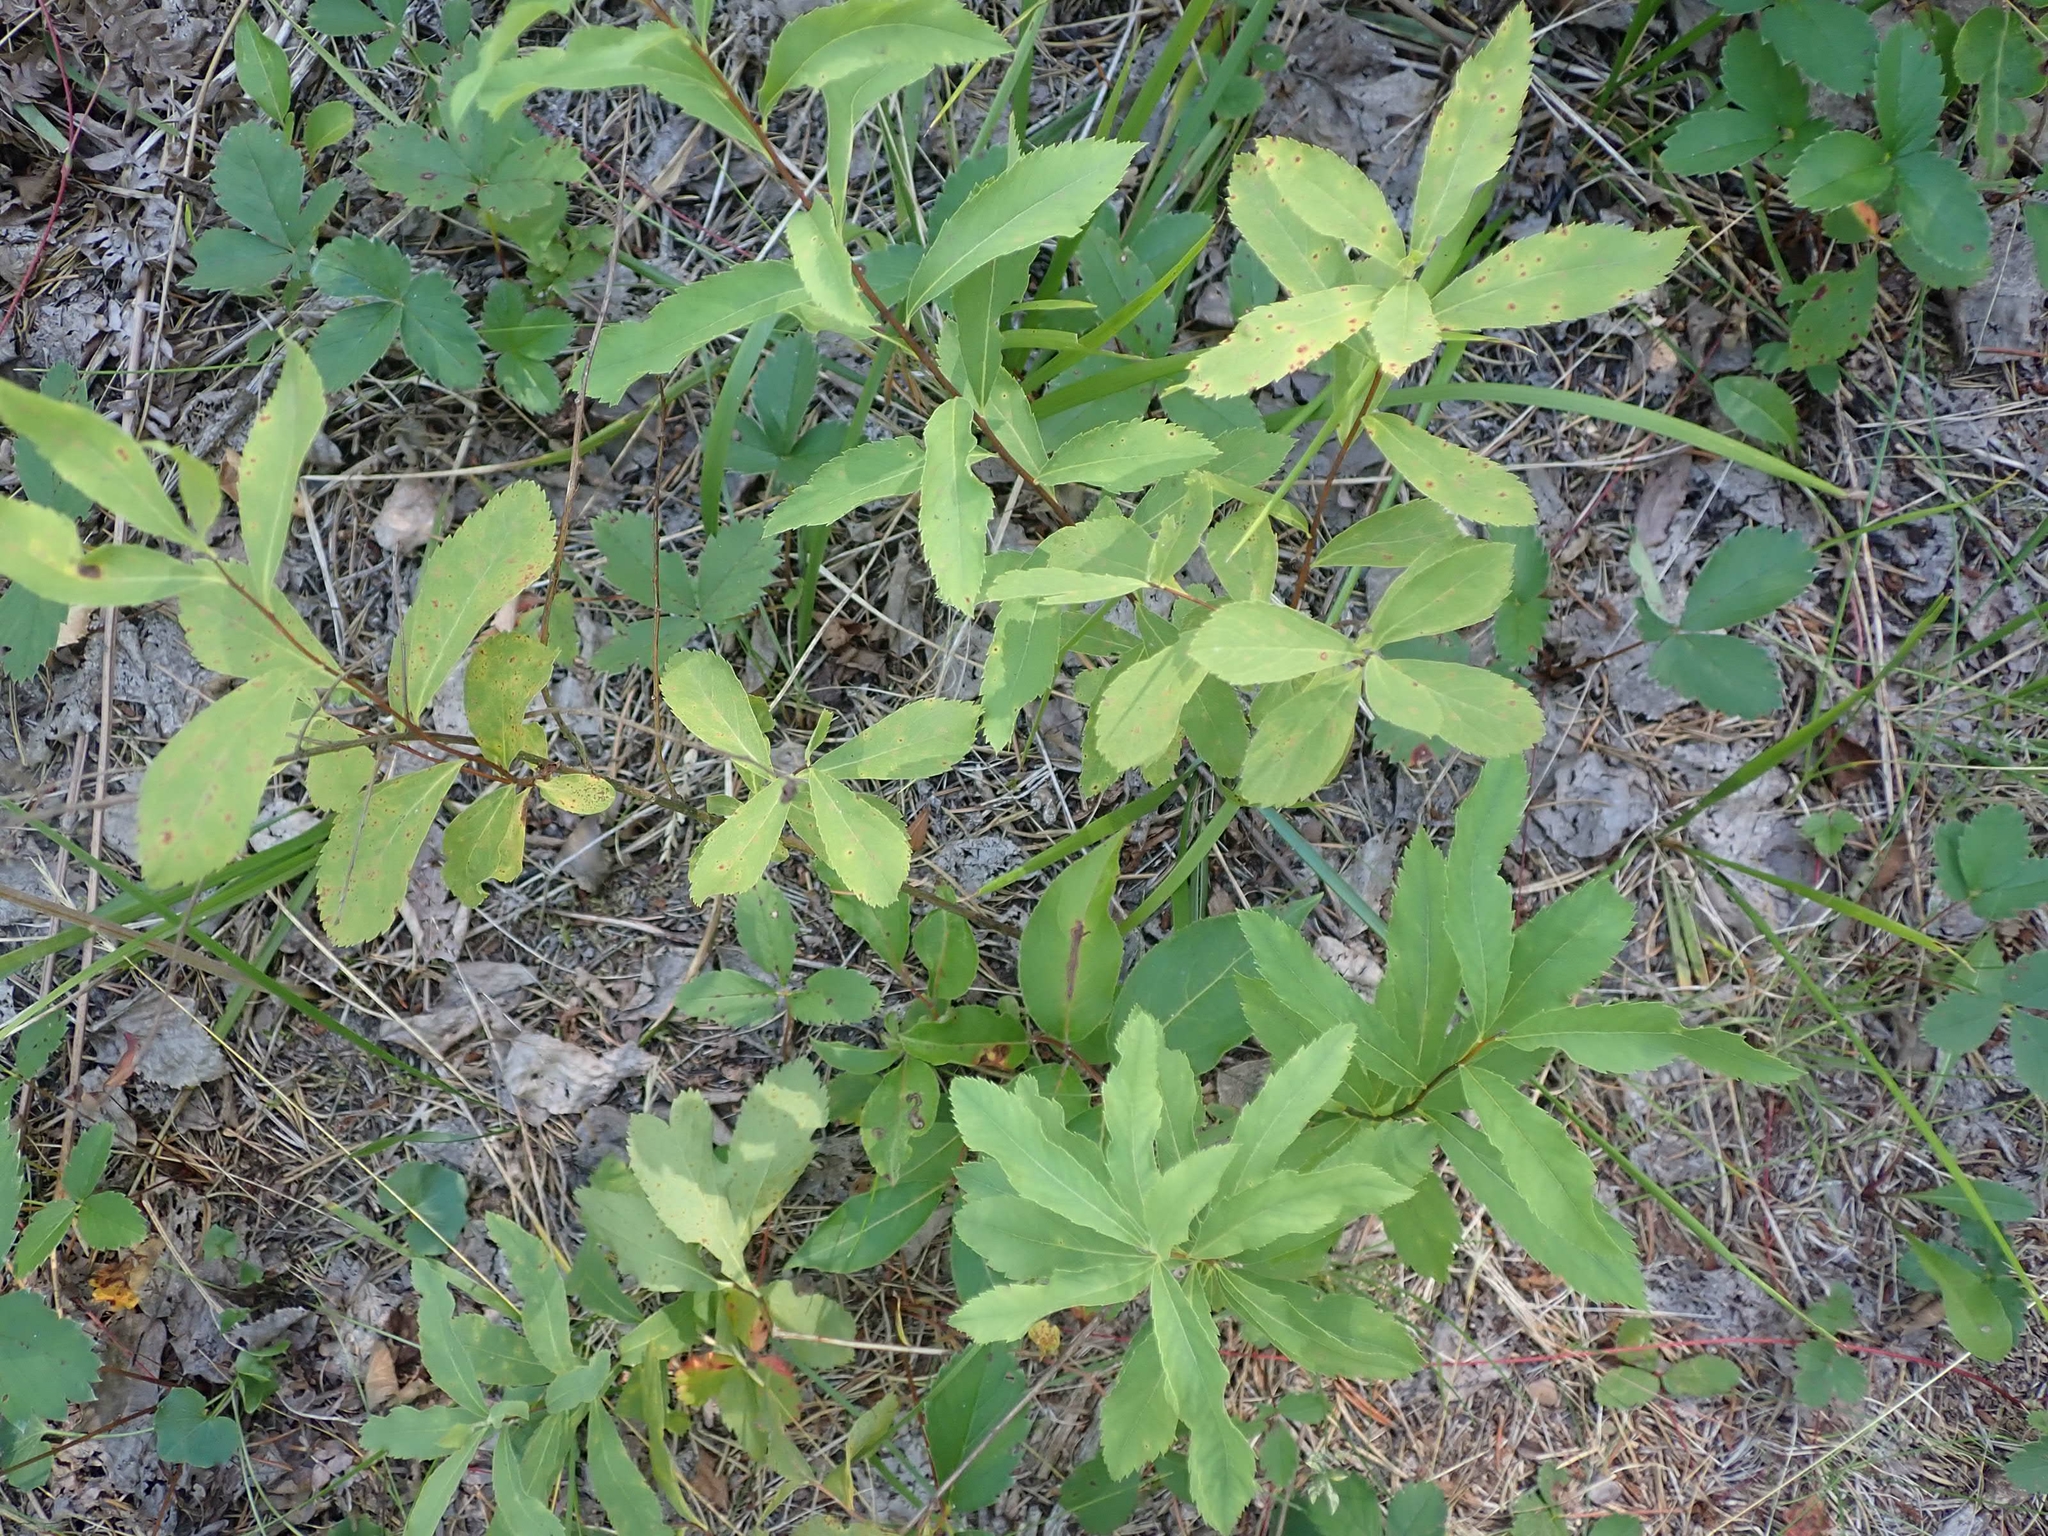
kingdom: Plantae
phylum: Tracheophyta
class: Magnoliopsida
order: Rosales
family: Rosaceae
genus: Spiraea
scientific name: Spiraea alba
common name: Pale bridewort
